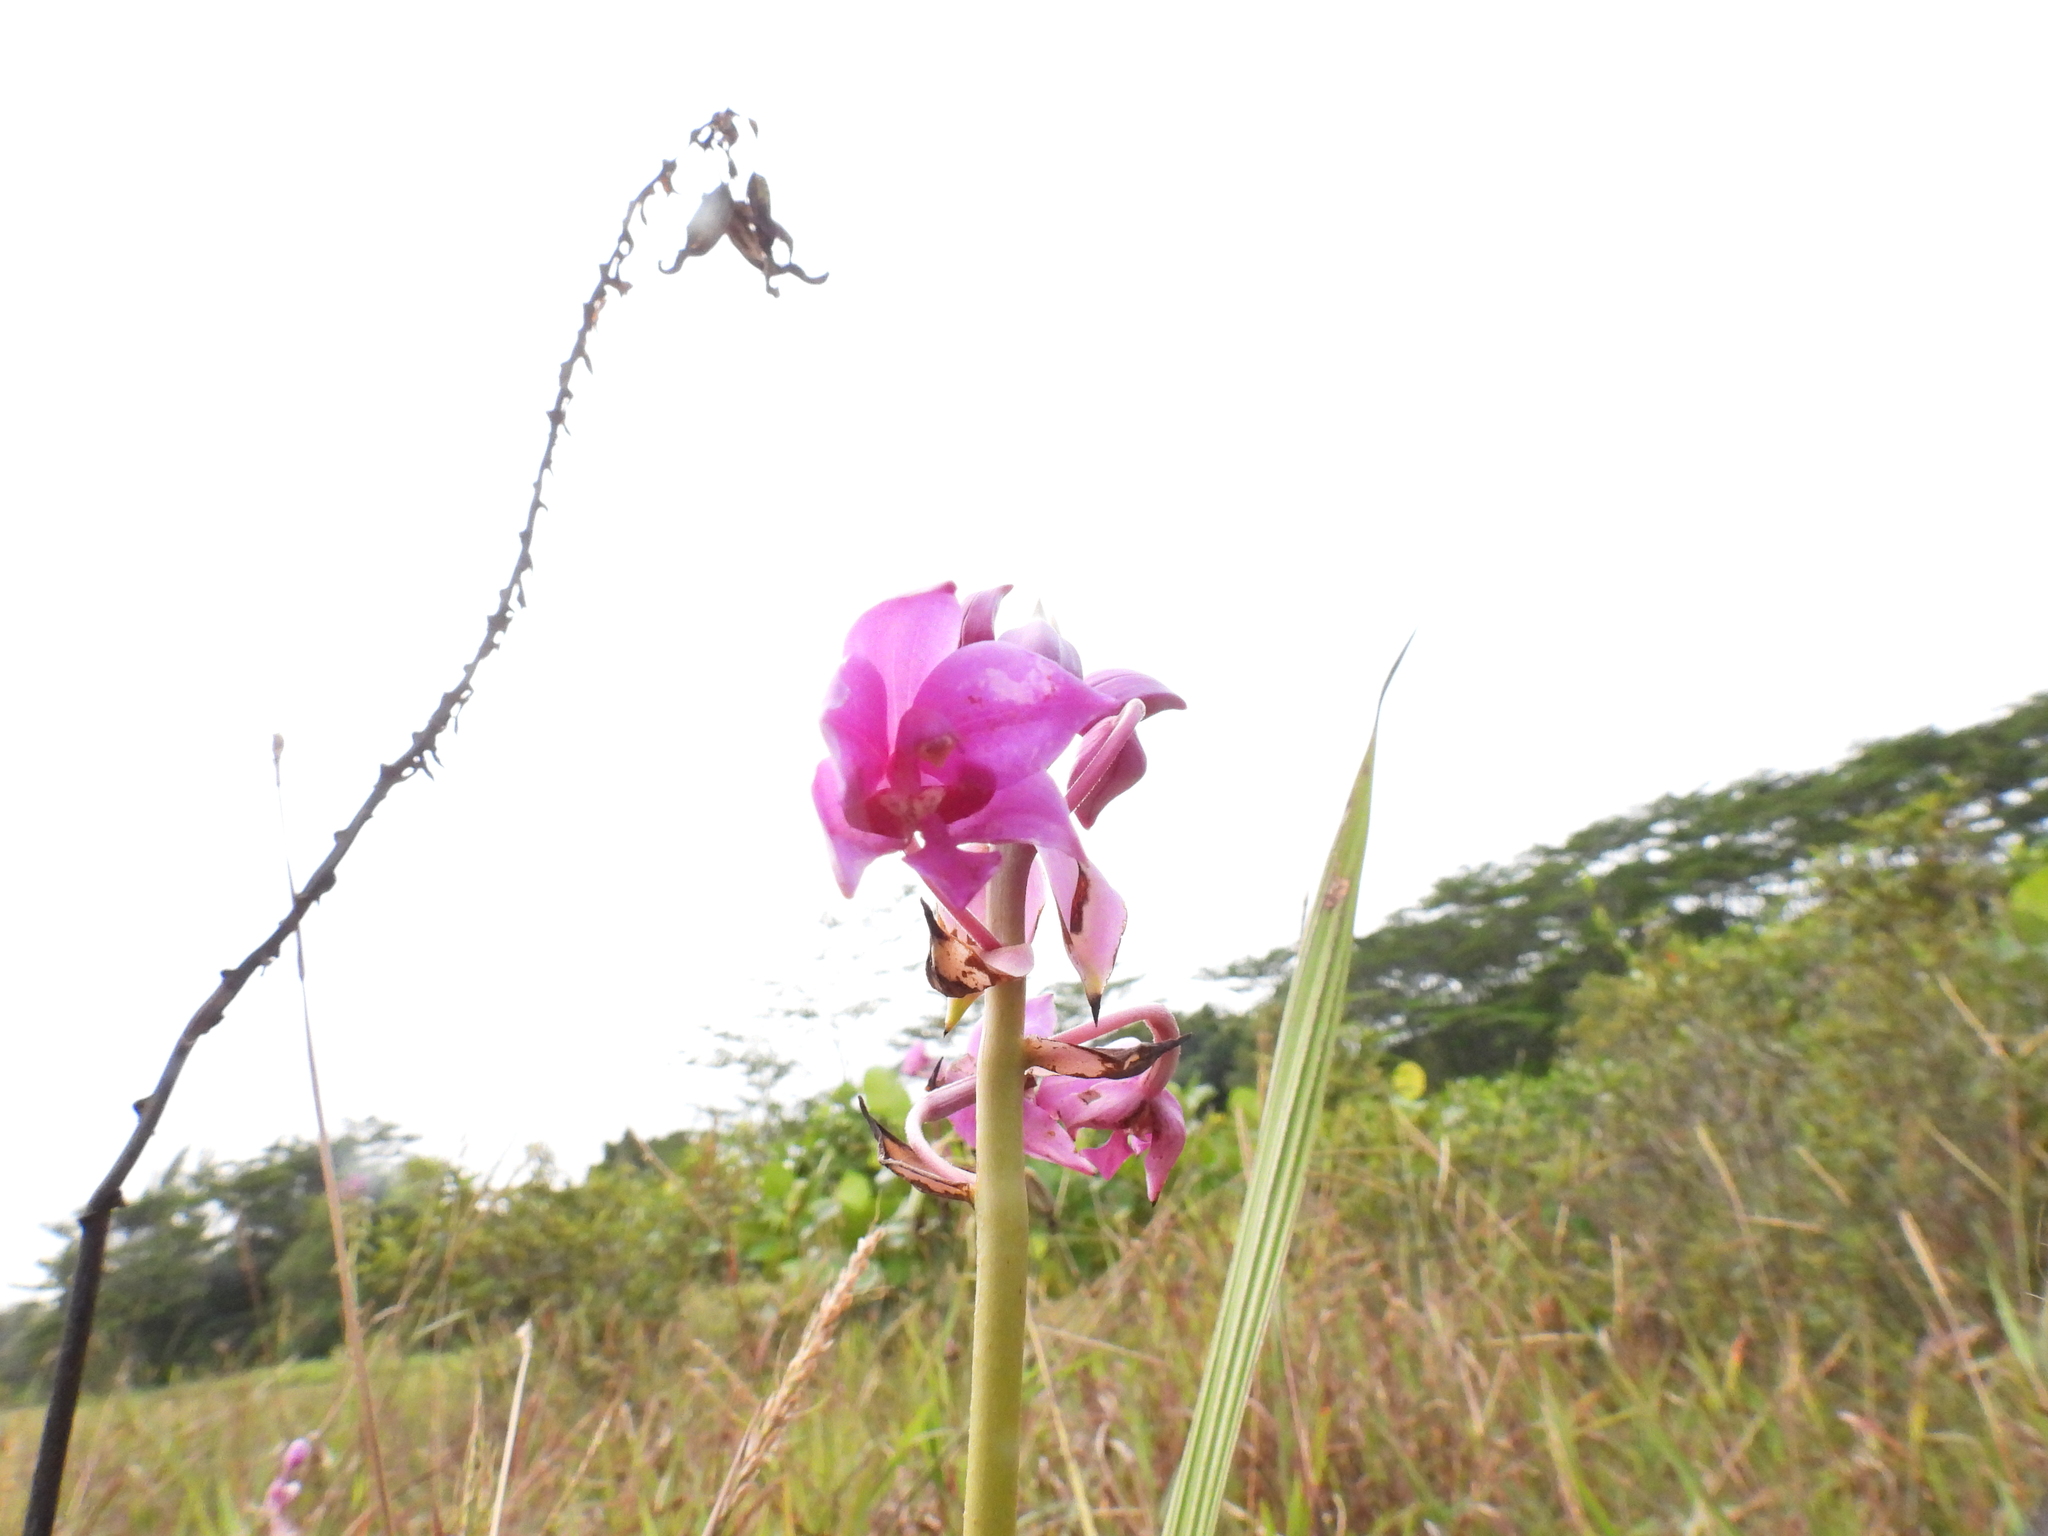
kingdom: Plantae
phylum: Tracheophyta
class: Liliopsida
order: Asparagales
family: Orchidaceae
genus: Spathoglottis
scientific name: Spathoglottis plicata
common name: Philippine ground orchid
